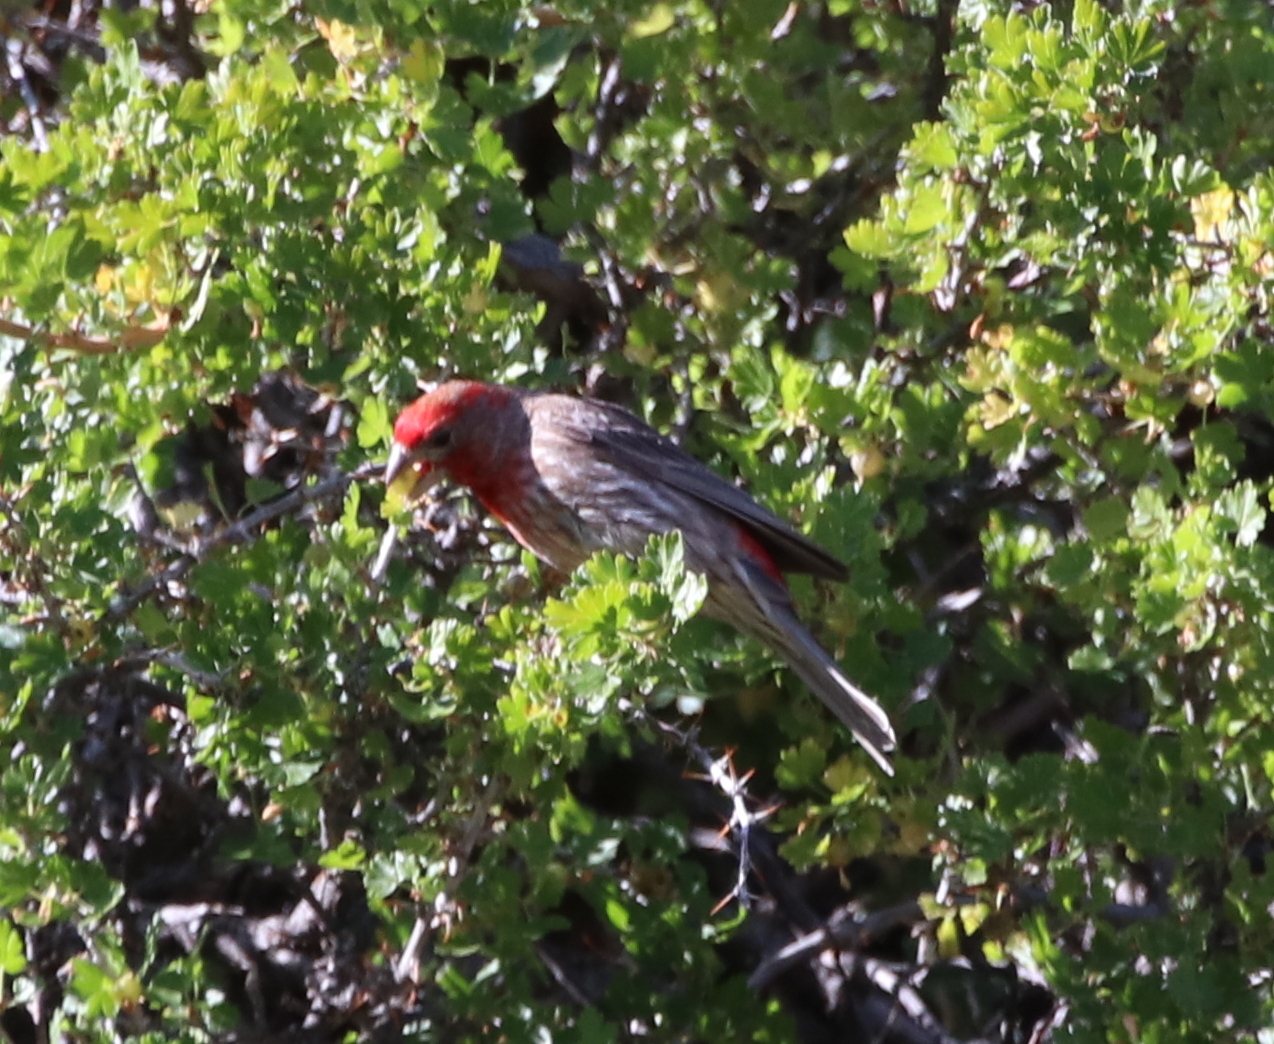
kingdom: Animalia
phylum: Chordata
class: Aves
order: Passeriformes
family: Fringillidae
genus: Haemorhous
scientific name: Haemorhous mexicanus
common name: House finch
